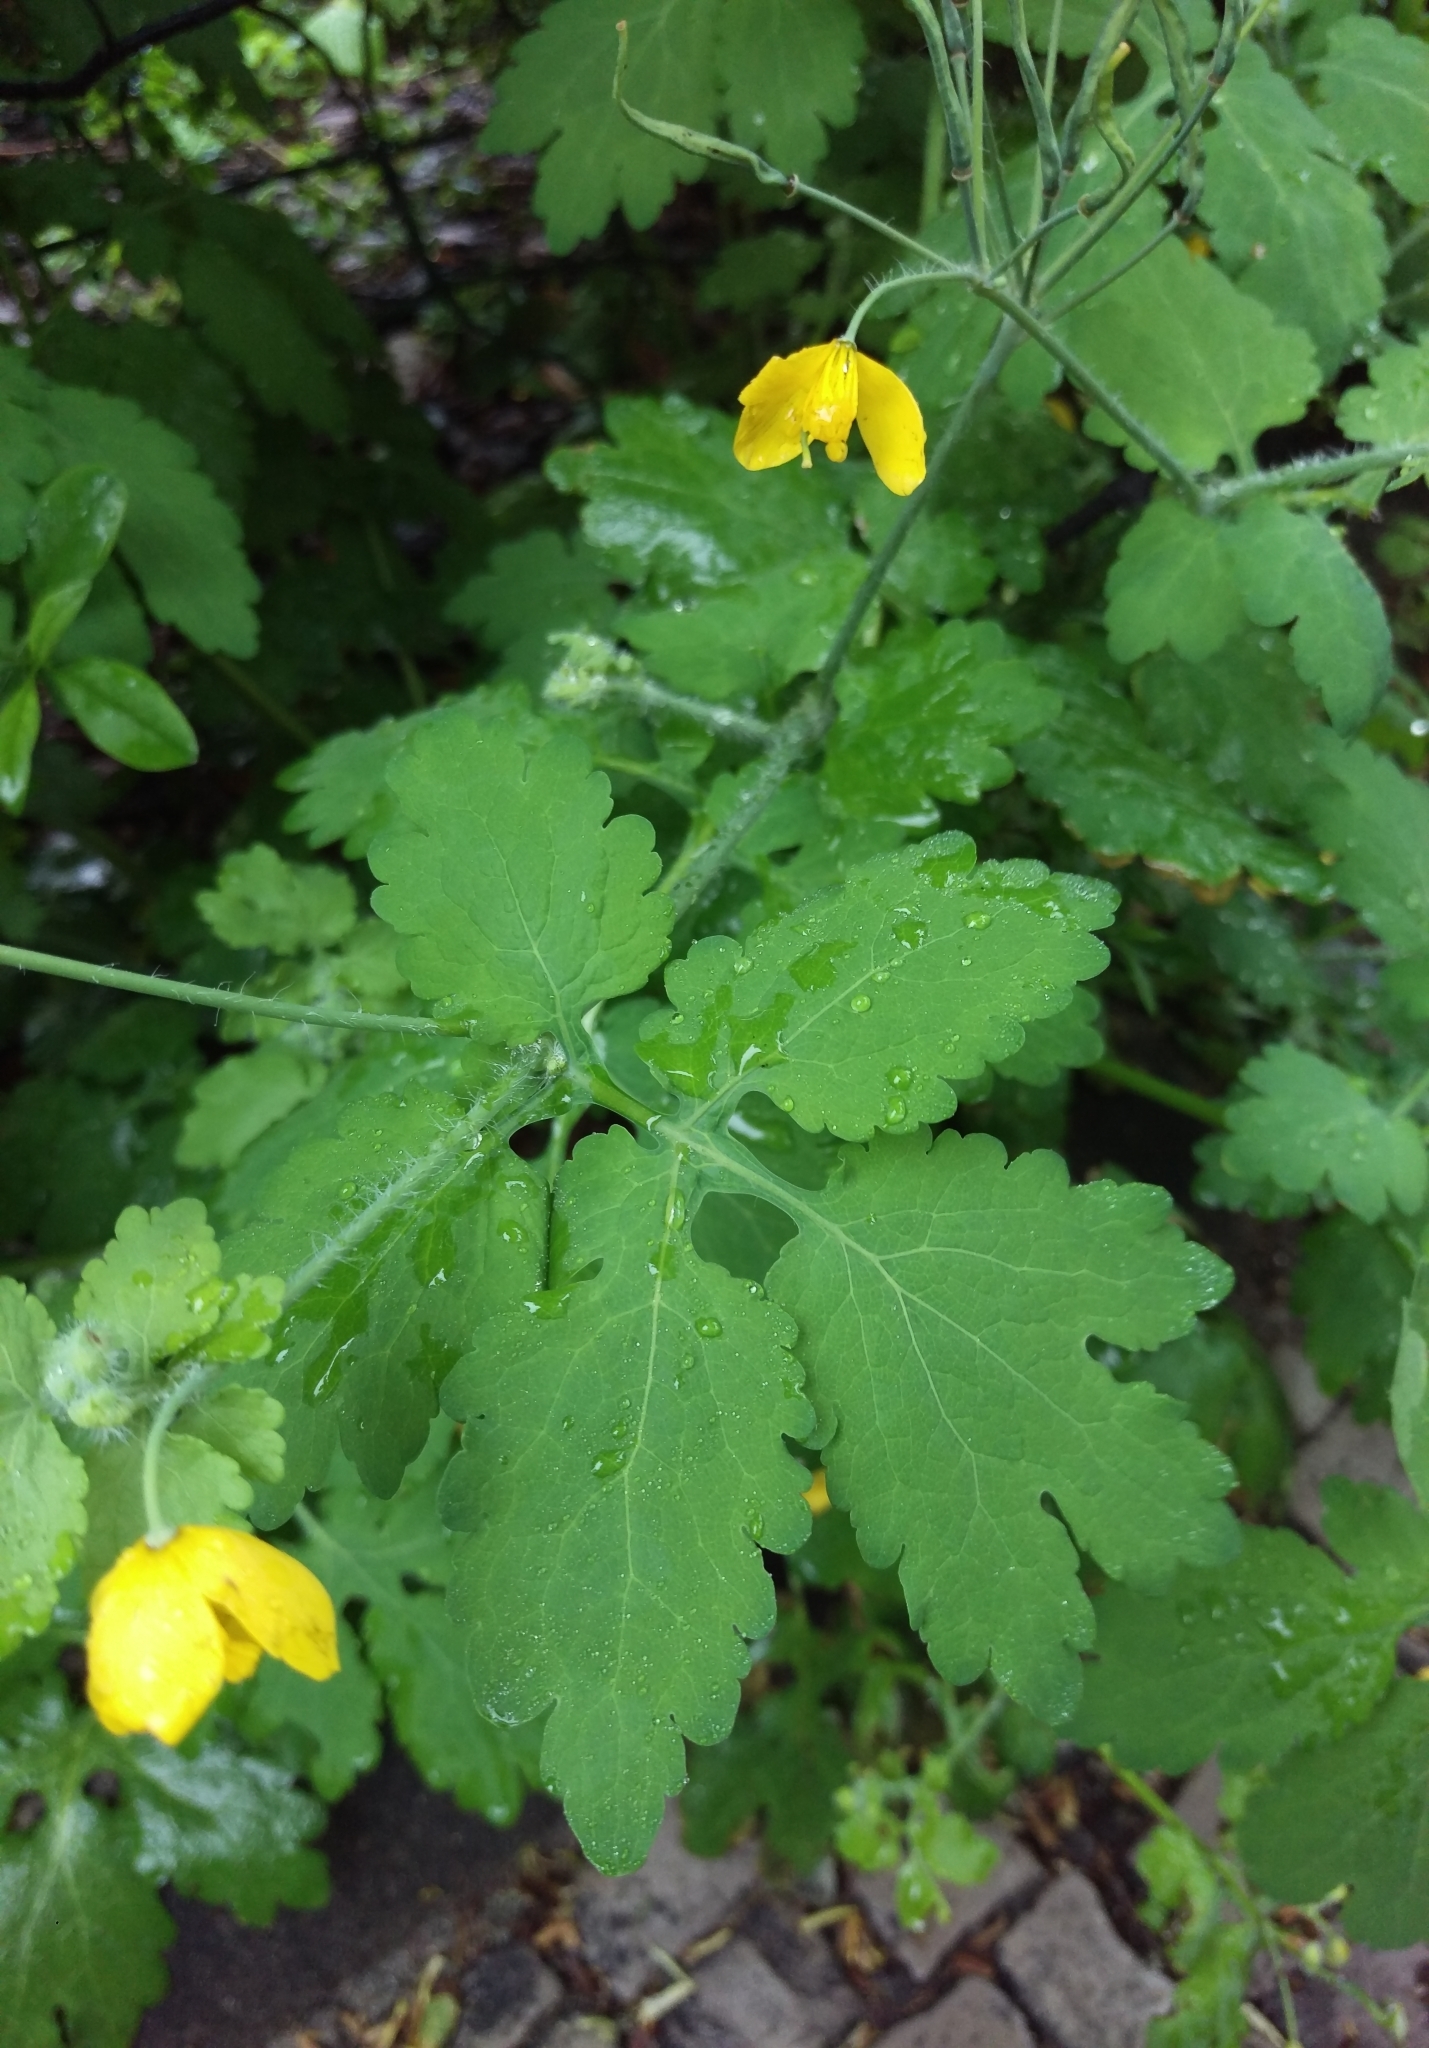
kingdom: Plantae
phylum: Tracheophyta
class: Magnoliopsida
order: Ranunculales
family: Papaveraceae
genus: Chelidonium
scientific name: Chelidonium majus
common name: Greater celandine
